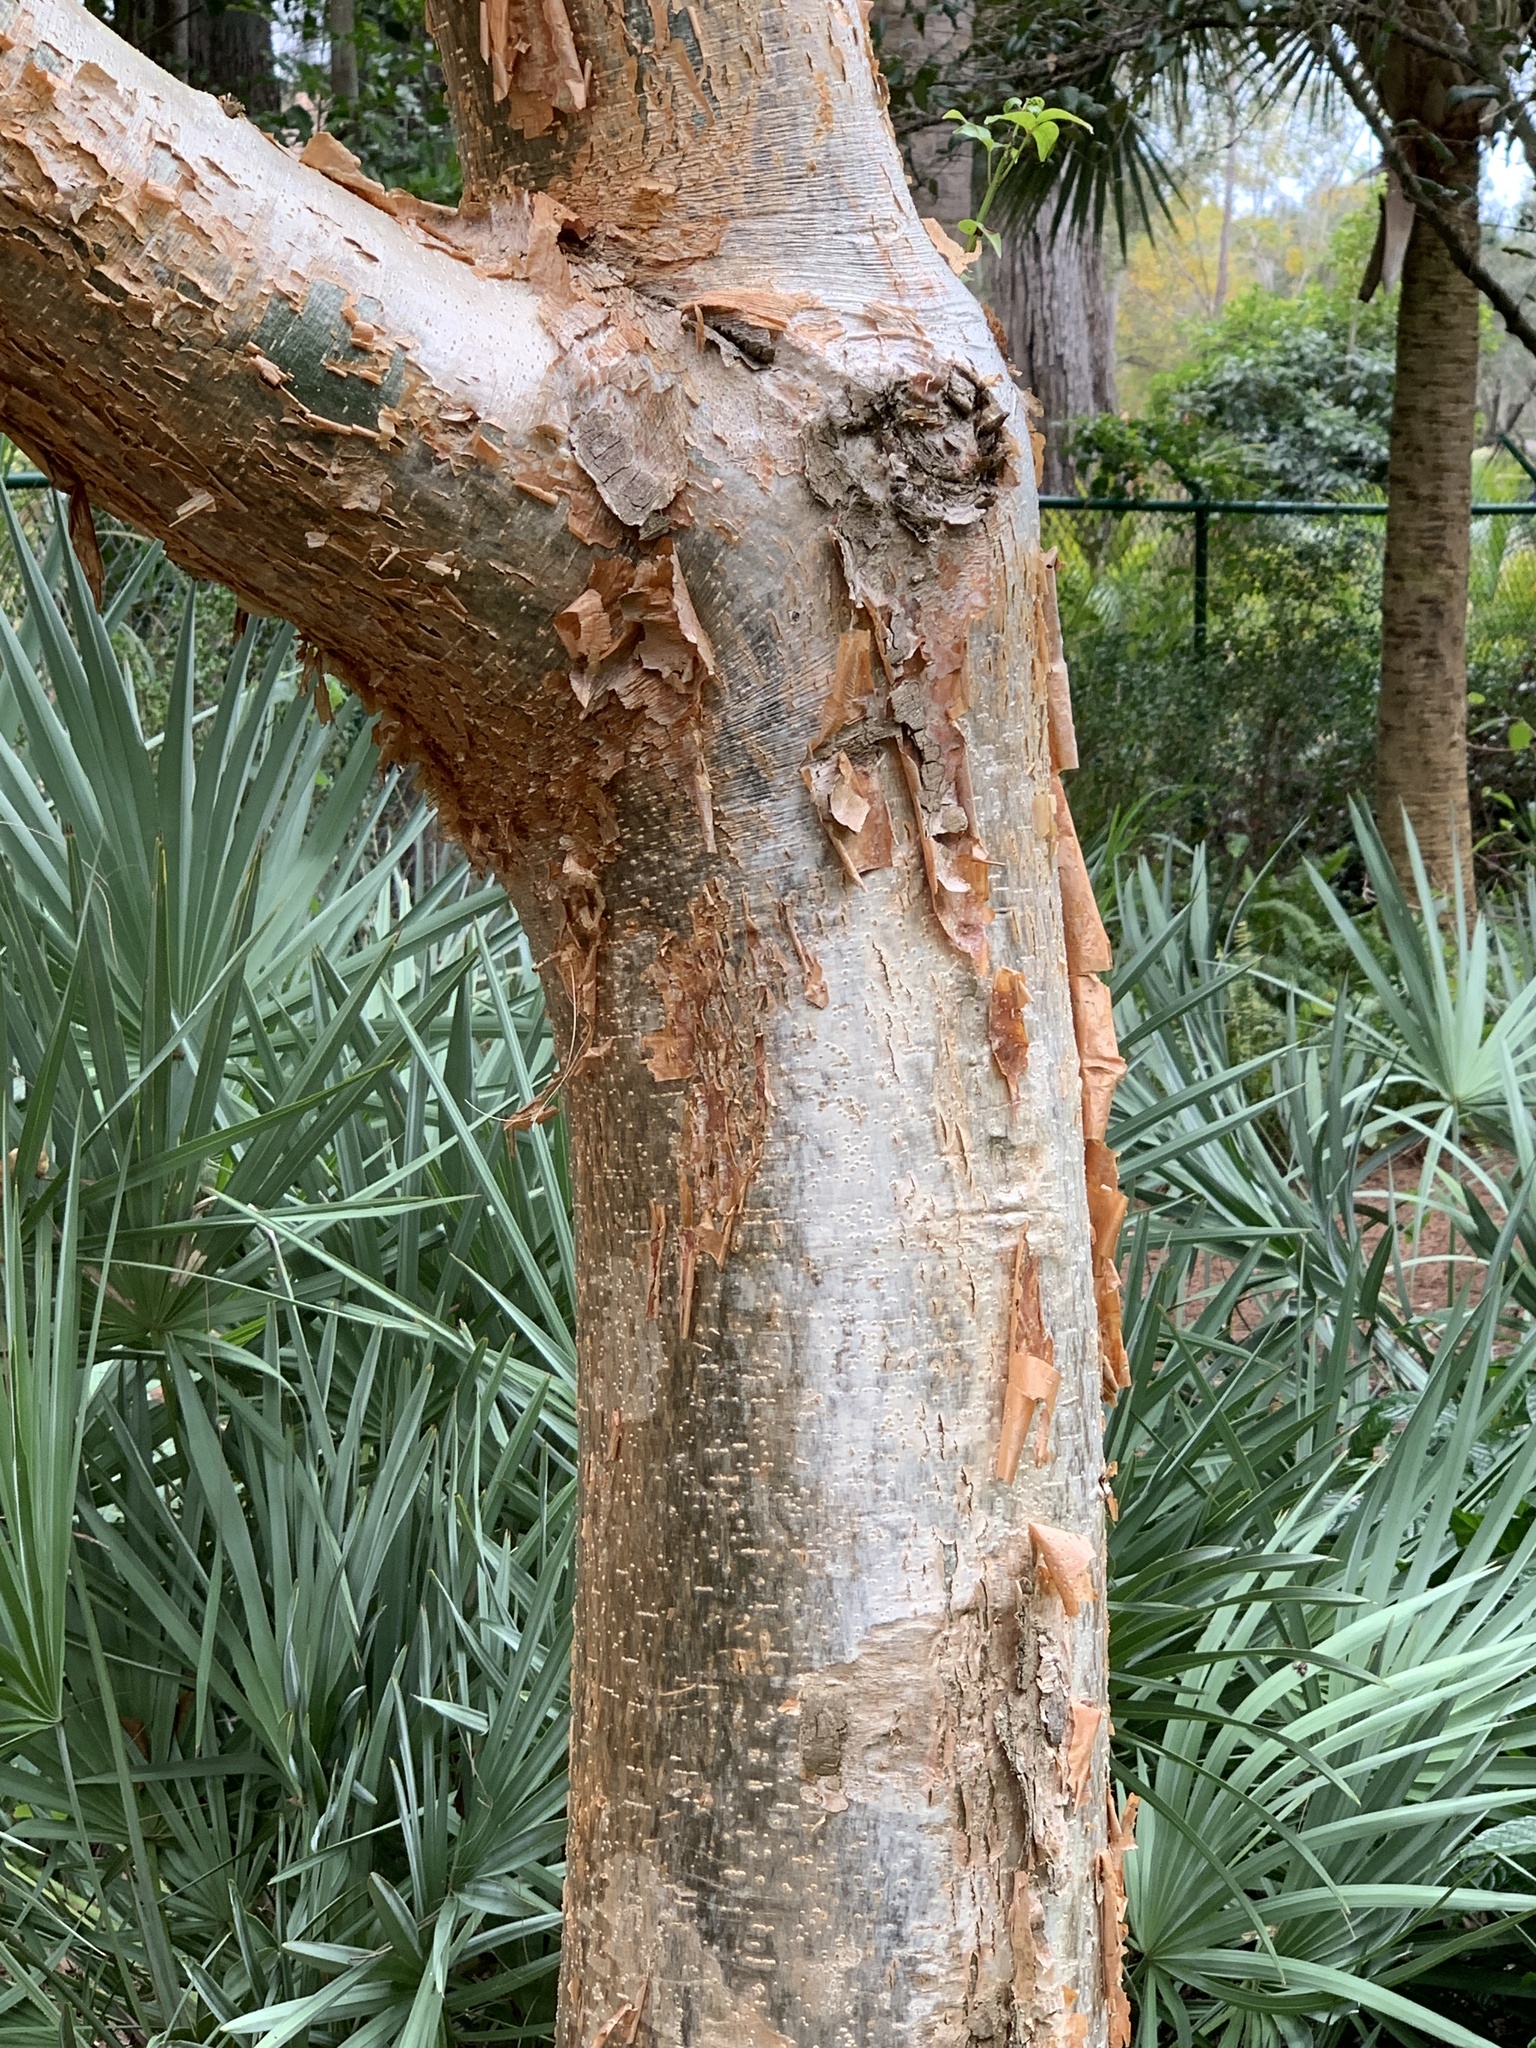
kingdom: Plantae
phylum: Tracheophyta
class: Magnoliopsida
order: Sapindales
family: Burseraceae
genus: Bursera
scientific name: Bursera simaruba
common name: Turpentine tree
